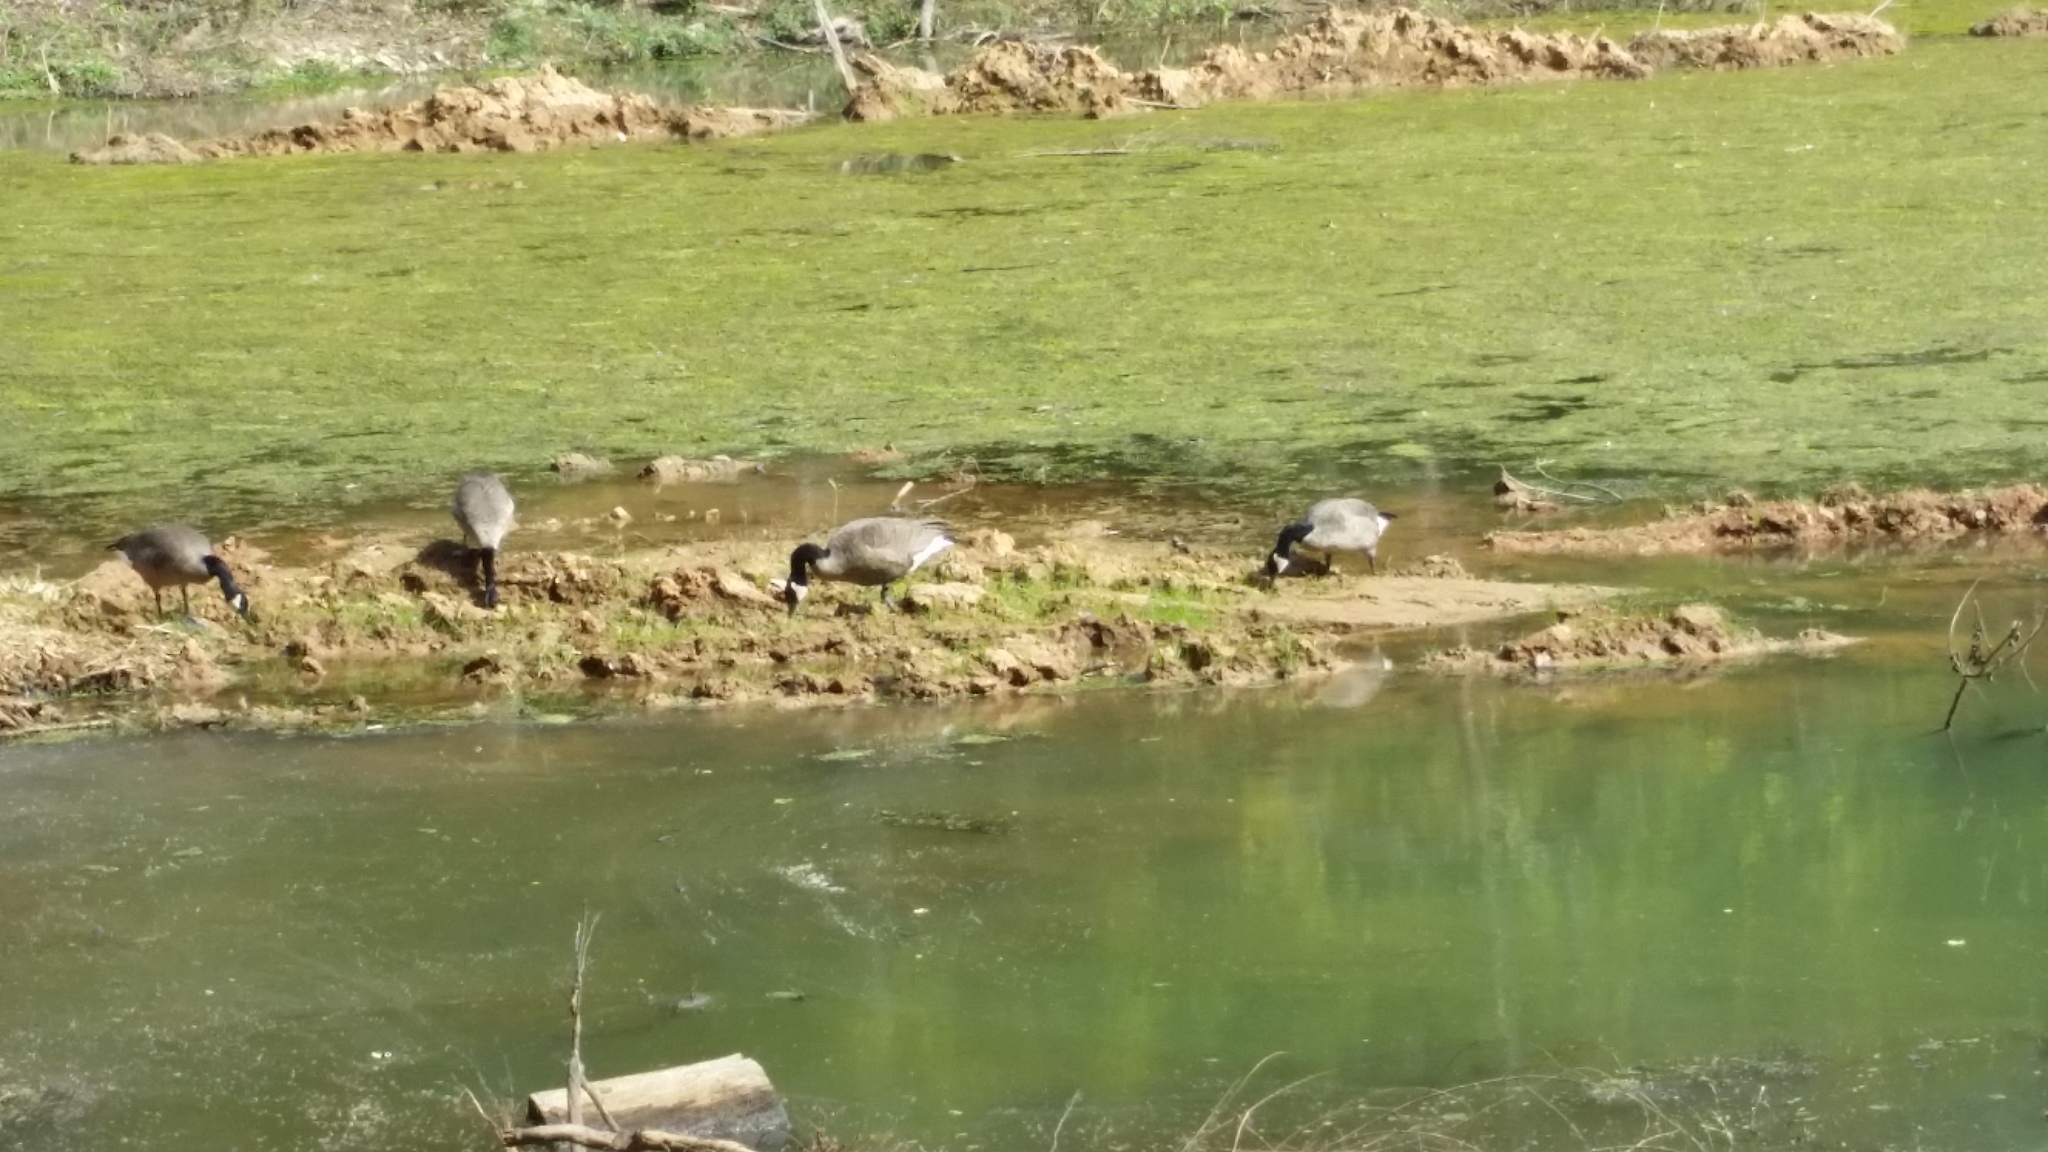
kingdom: Animalia
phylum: Chordata
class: Aves
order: Anseriformes
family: Anatidae
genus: Branta
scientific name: Branta canadensis
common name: Canada goose
